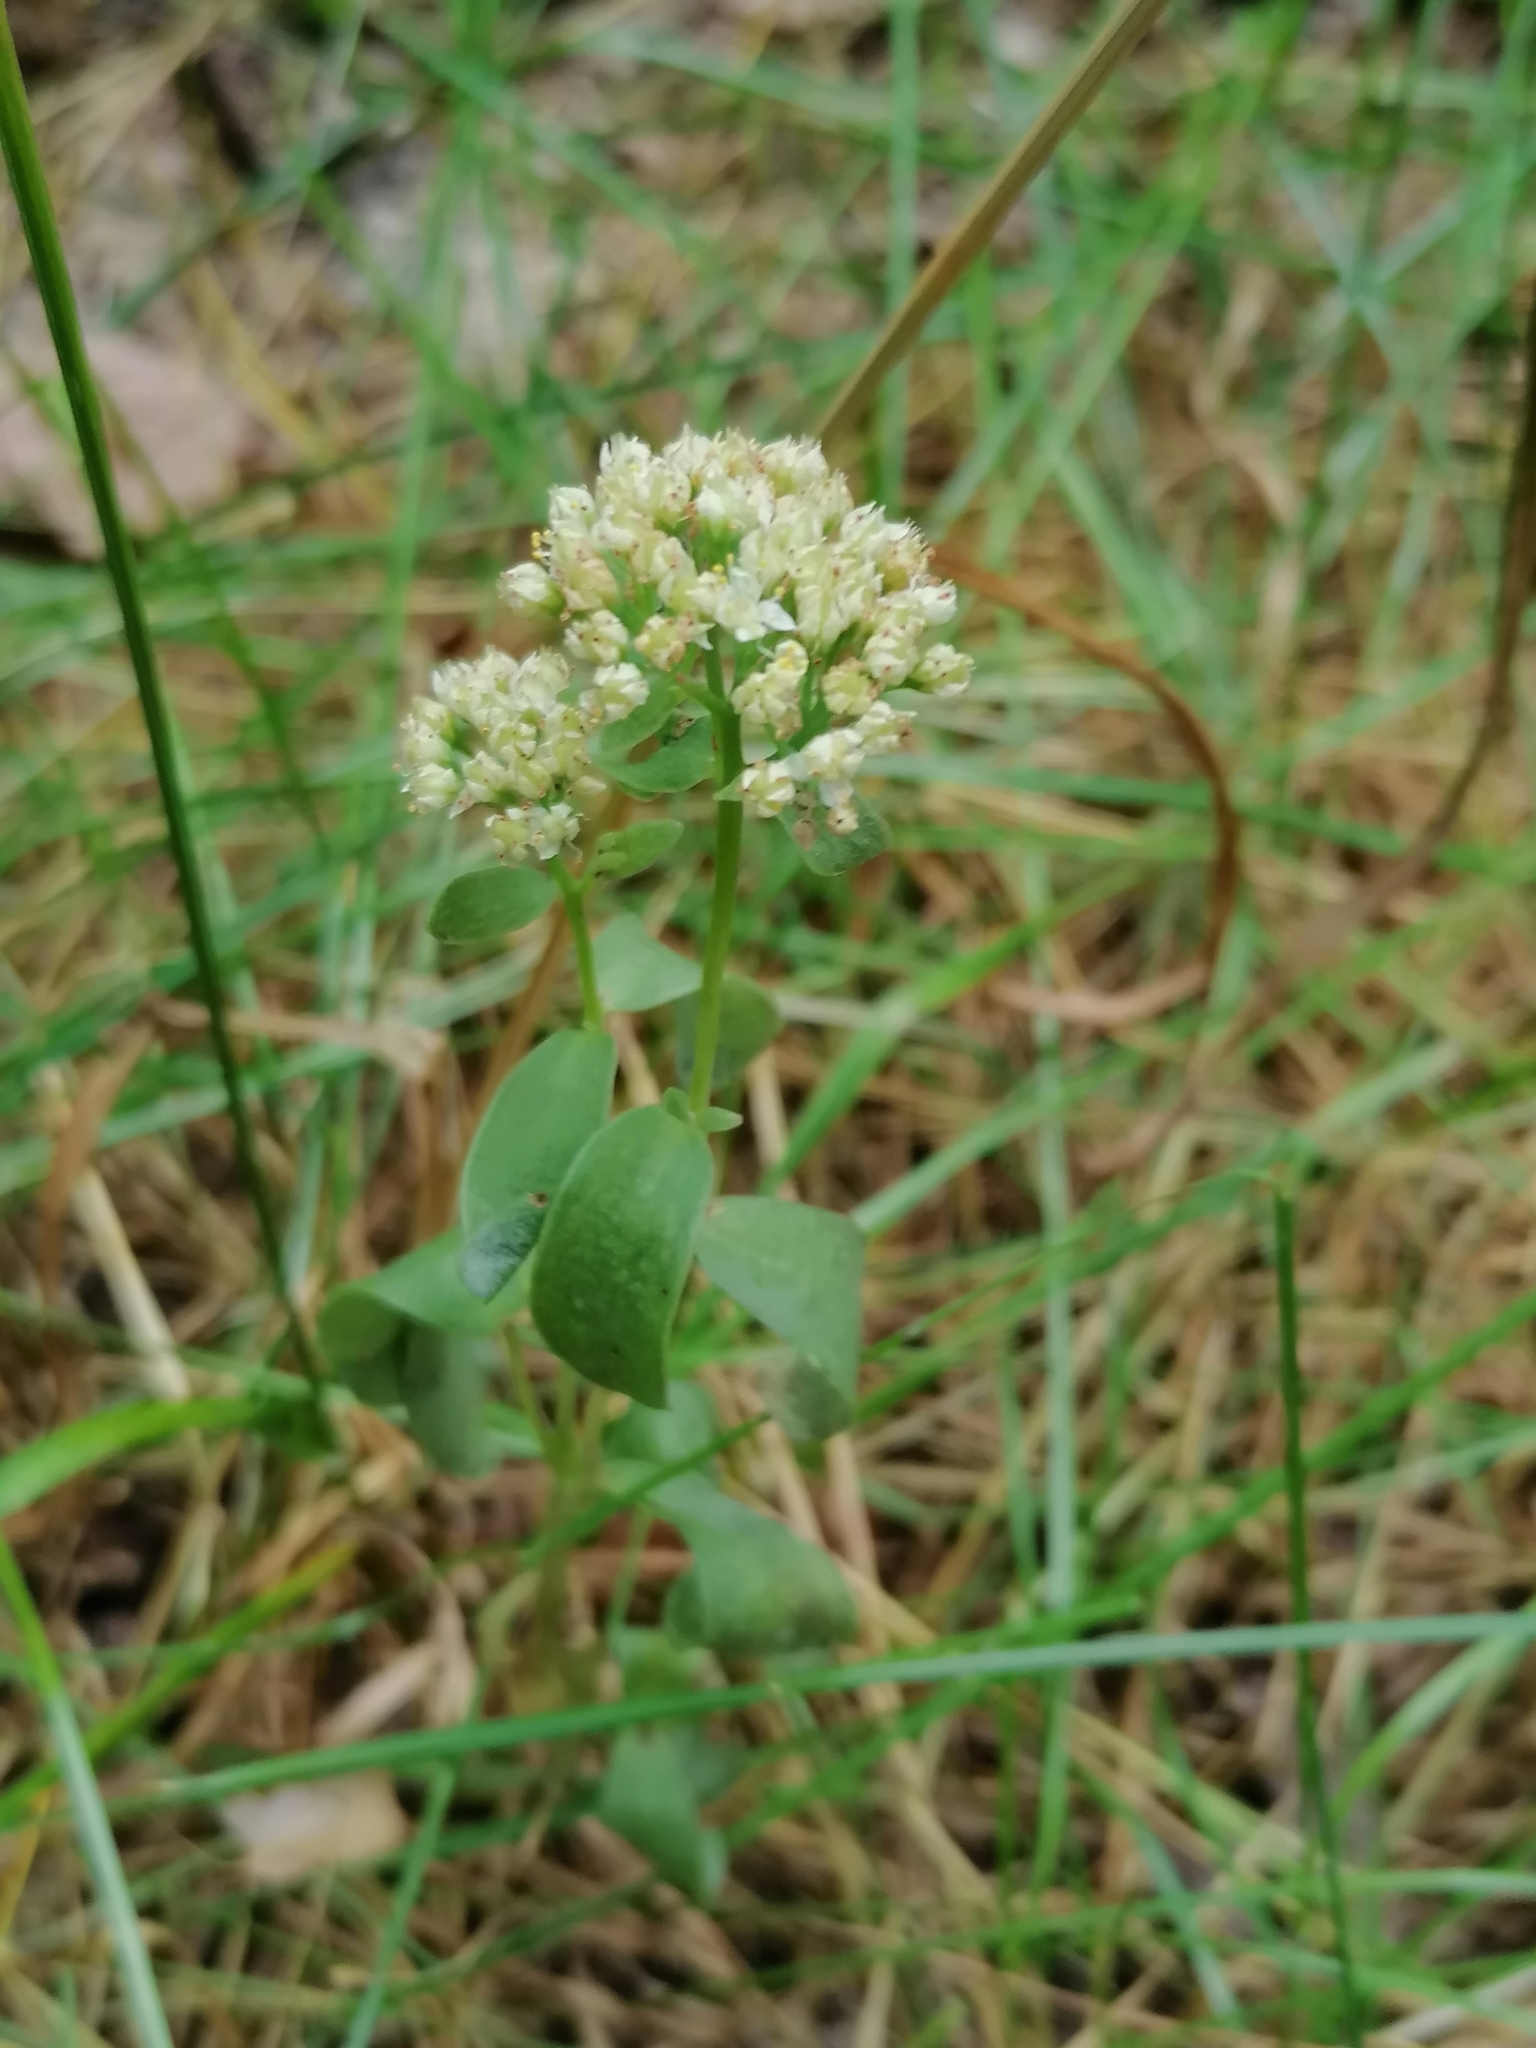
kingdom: Plantae
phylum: Tracheophyta
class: Magnoliopsida
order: Saxifragales
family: Crassulaceae
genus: Hylotelephium
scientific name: Hylotelephium maximum
